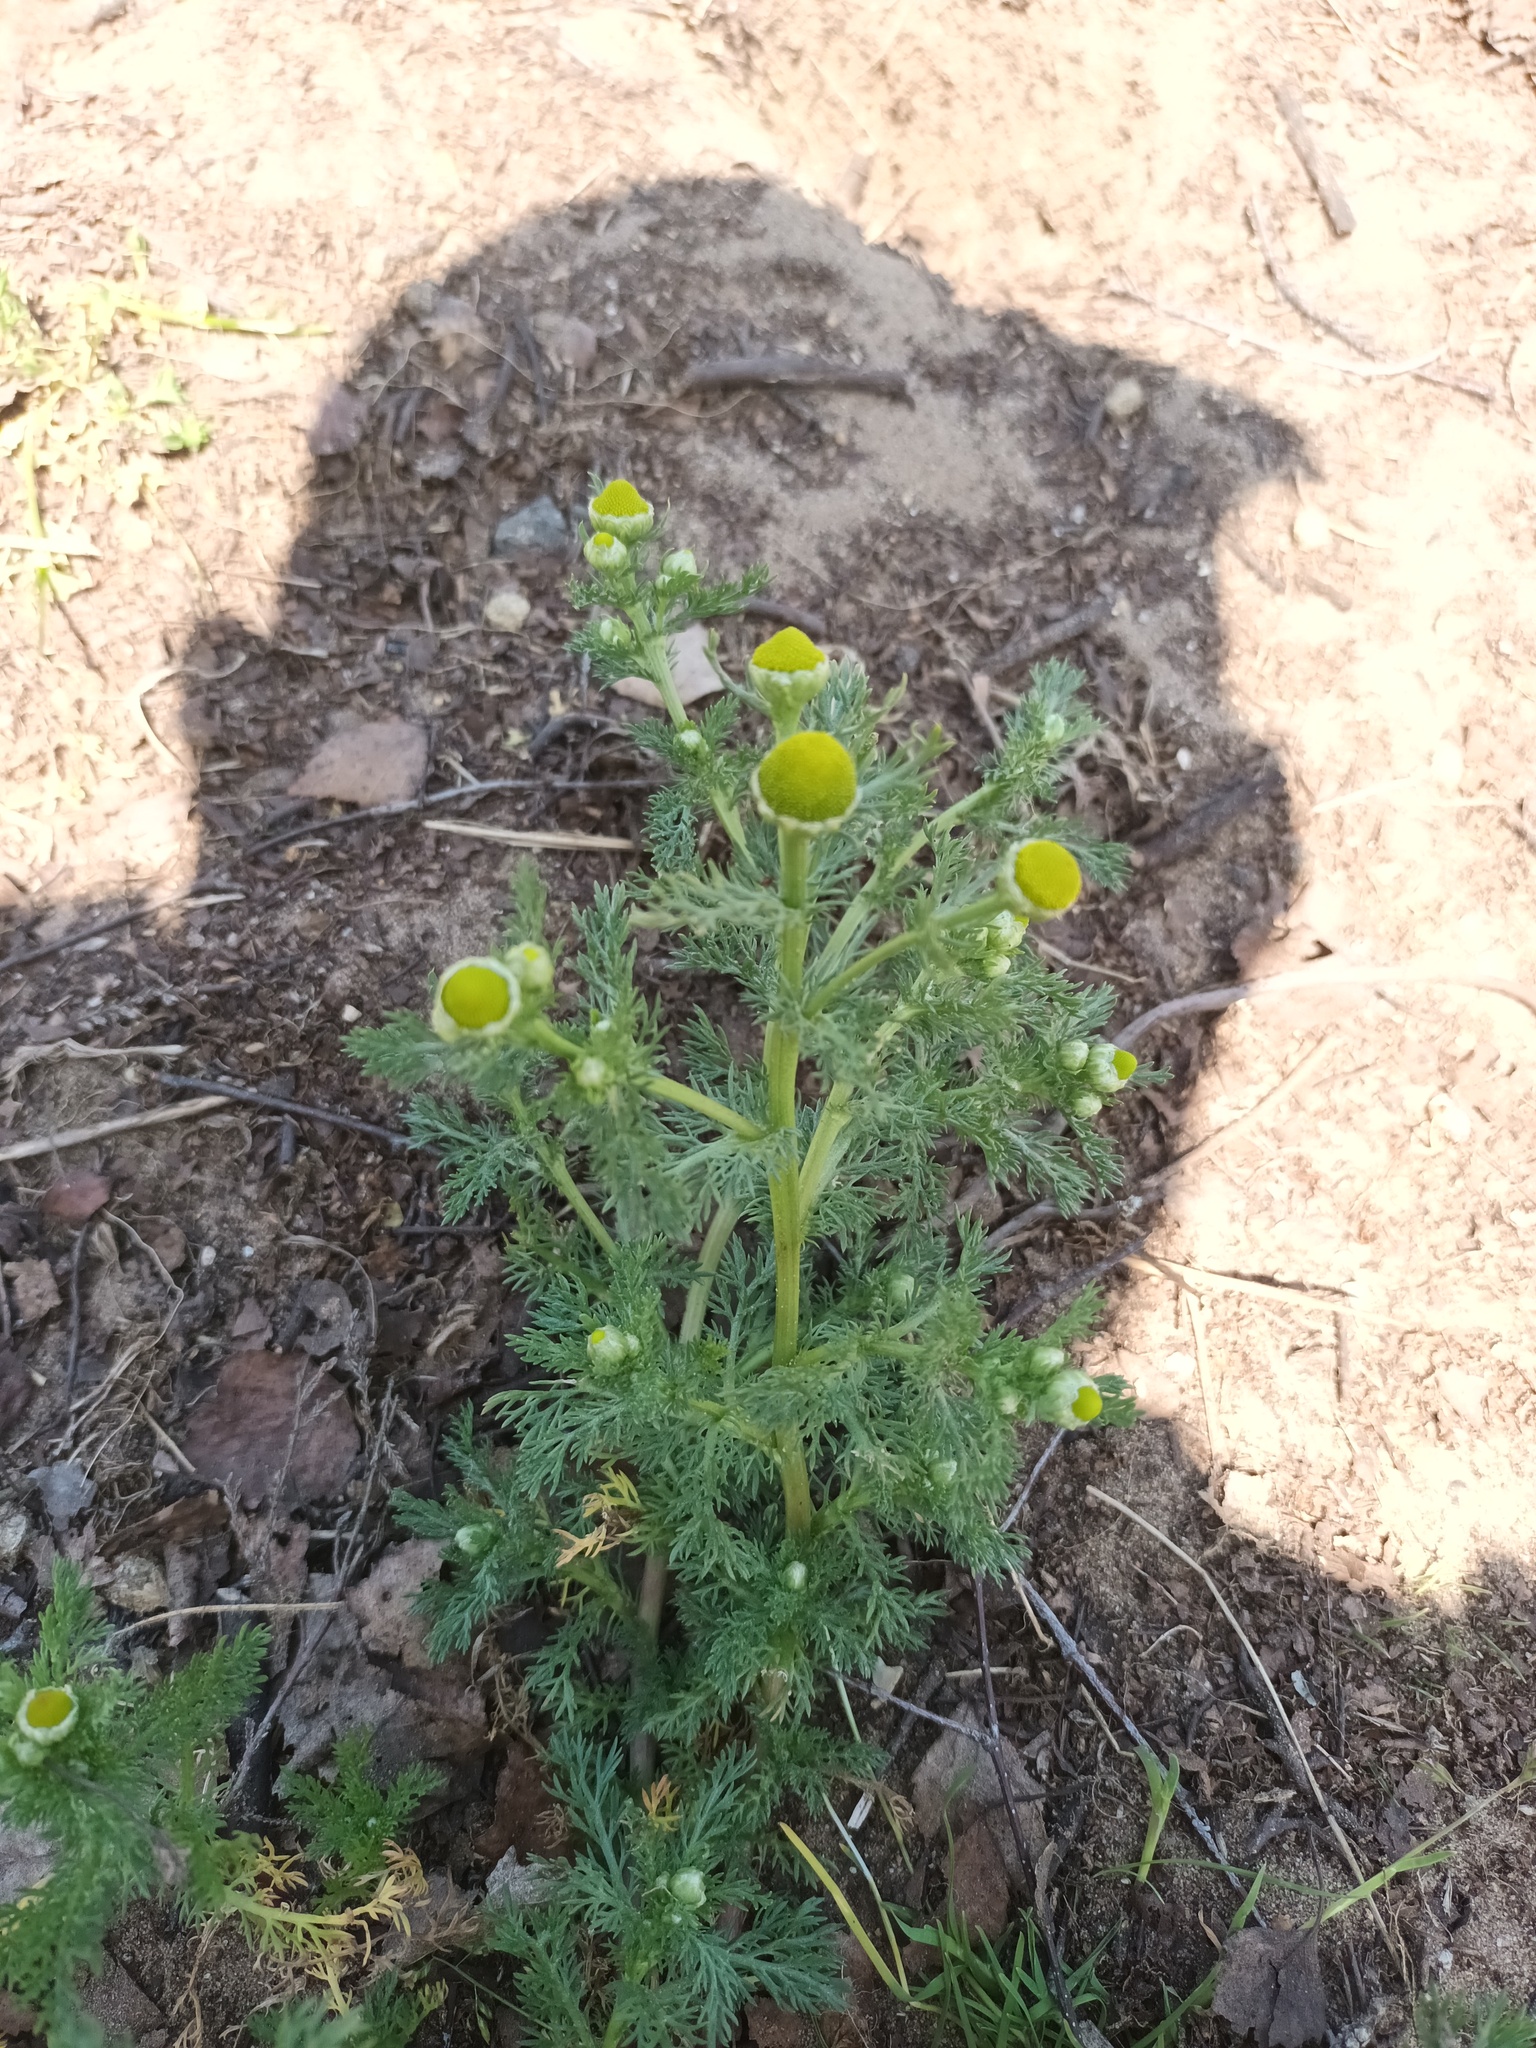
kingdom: Plantae
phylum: Tracheophyta
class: Magnoliopsida
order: Asterales
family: Asteraceae
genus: Matricaria
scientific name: Matricaria discoidea
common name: Disc mayweed
